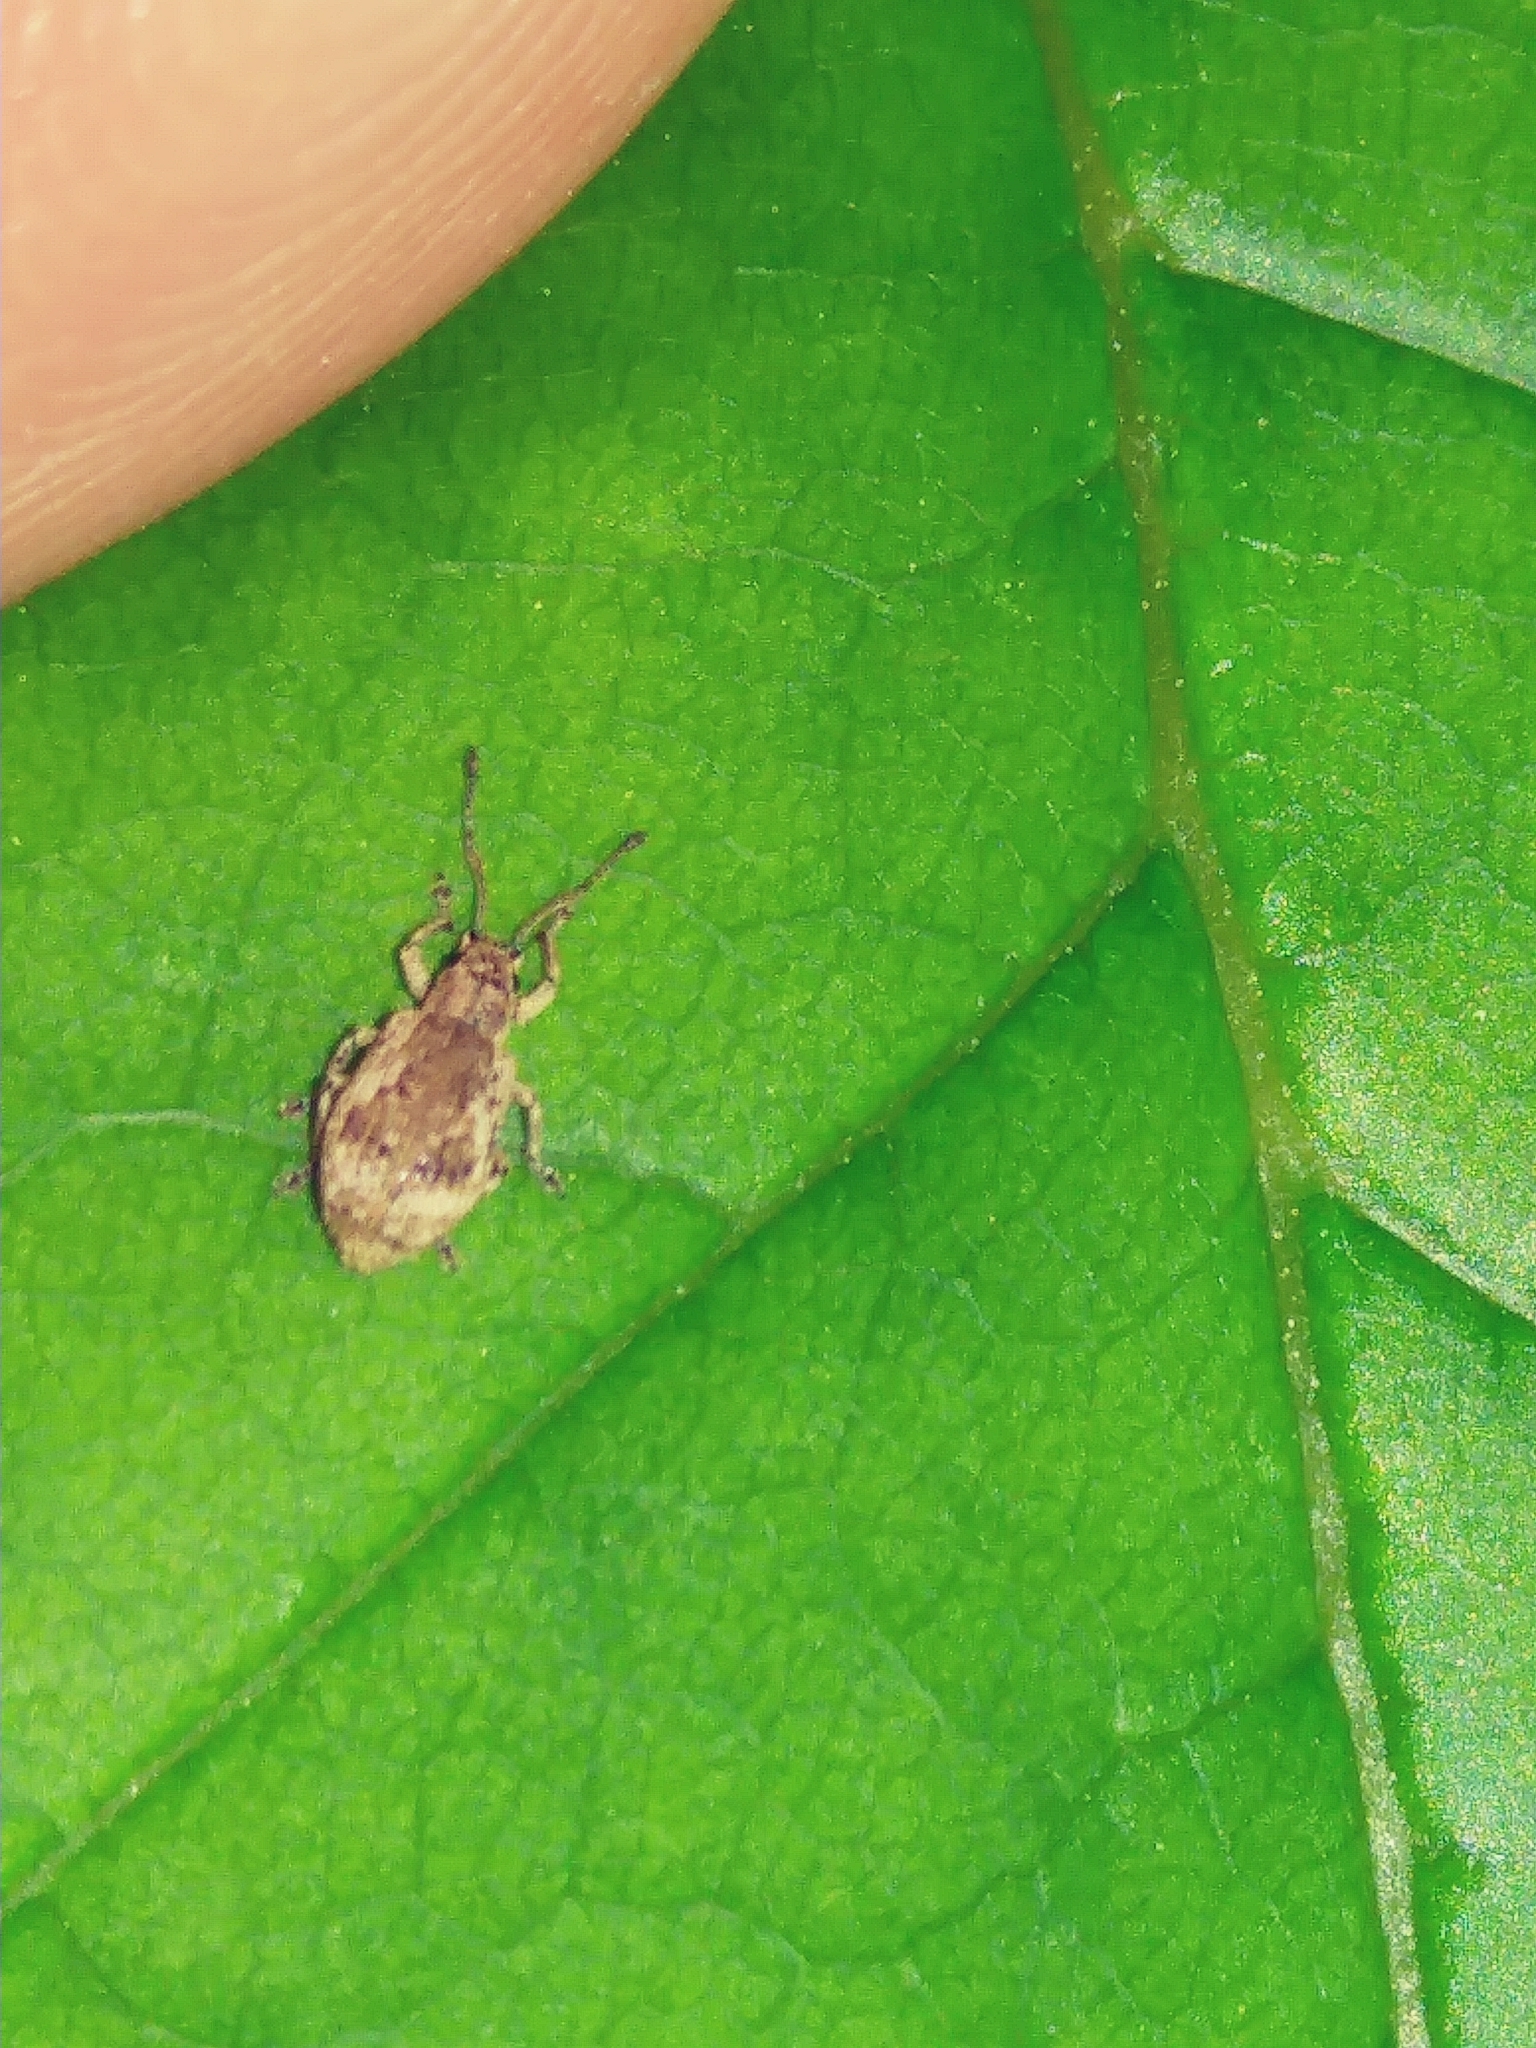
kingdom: Animalia
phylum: Arthropoda
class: Insecta
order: Coleoptera
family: Curculionidae
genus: Pseudoedophrys
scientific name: Pseudoedophrys hilleri
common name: Weevil
